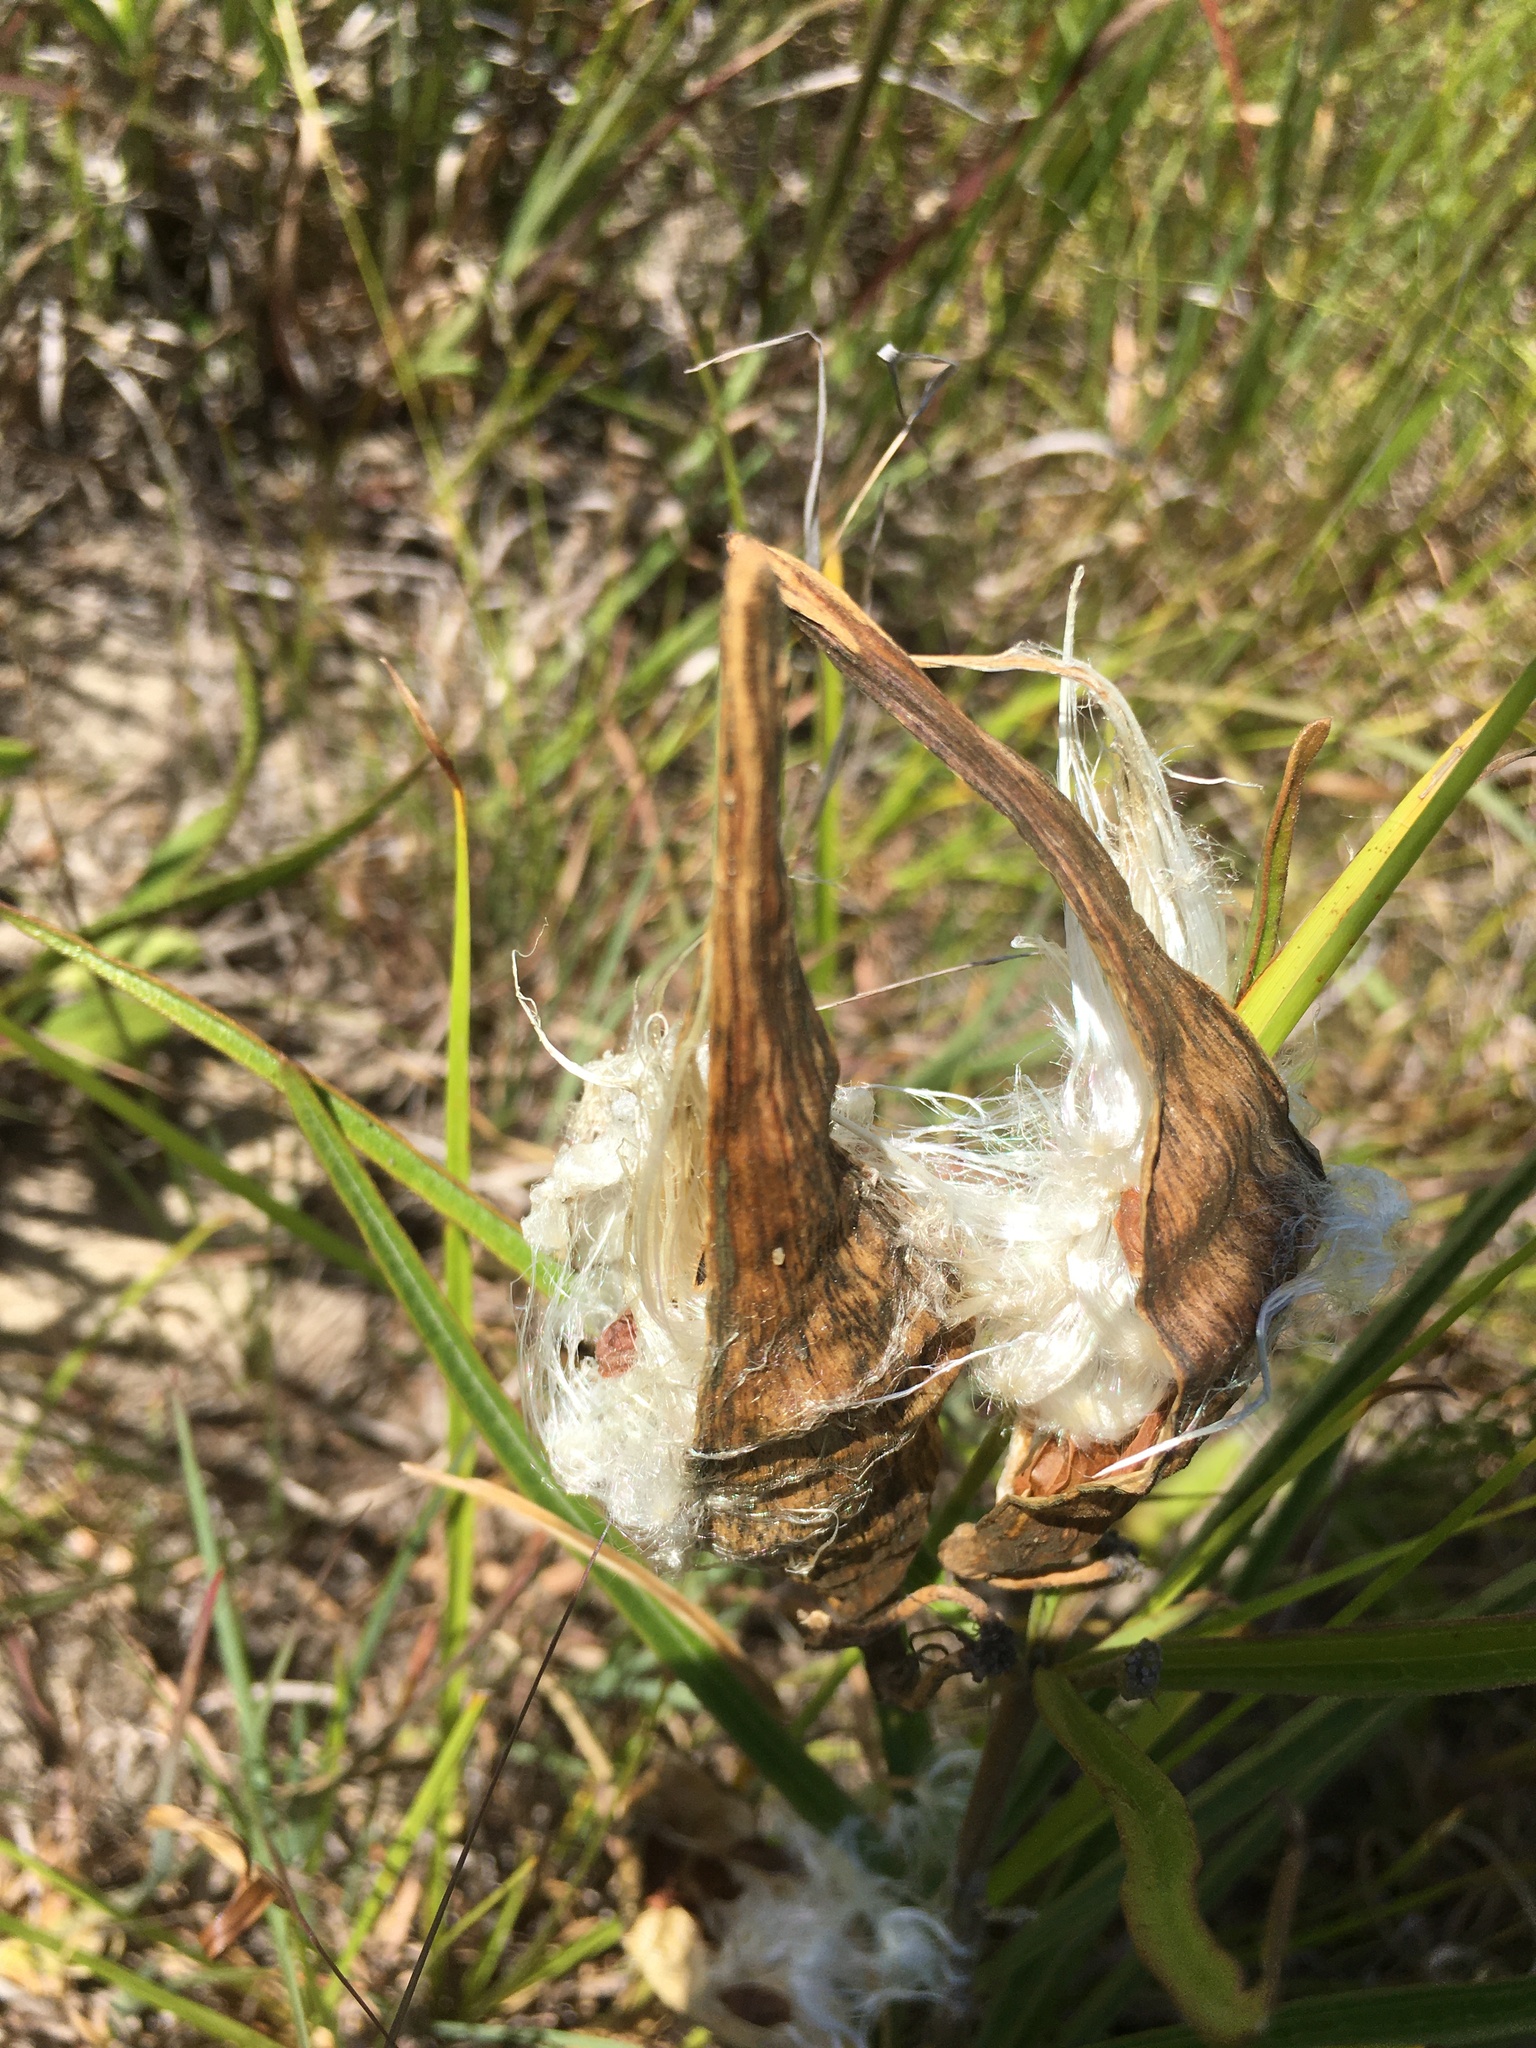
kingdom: Plantae
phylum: Tracheophyta
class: Magnoliopsida
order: Gentianales
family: Apocynaceae
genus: Asclepias
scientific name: Asclepias longifolia
